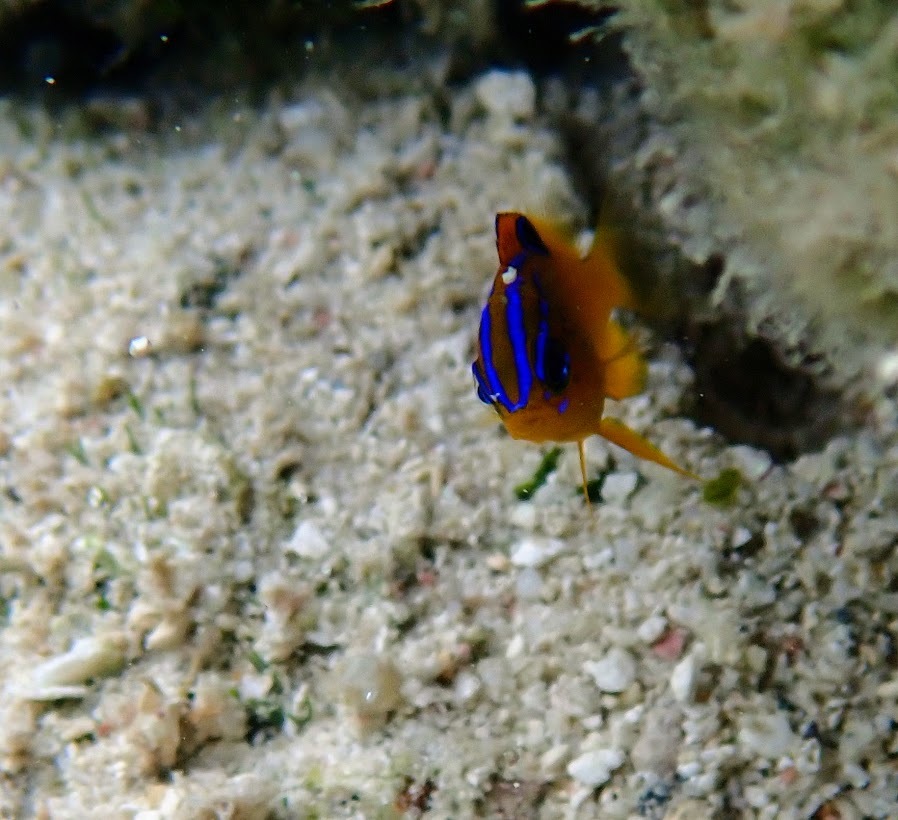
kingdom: Animalia
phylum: Chordata
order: Perciformes
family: Pomacentridae
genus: Stegastes
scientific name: Stegastes diencaeus
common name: Longfin damselfish
